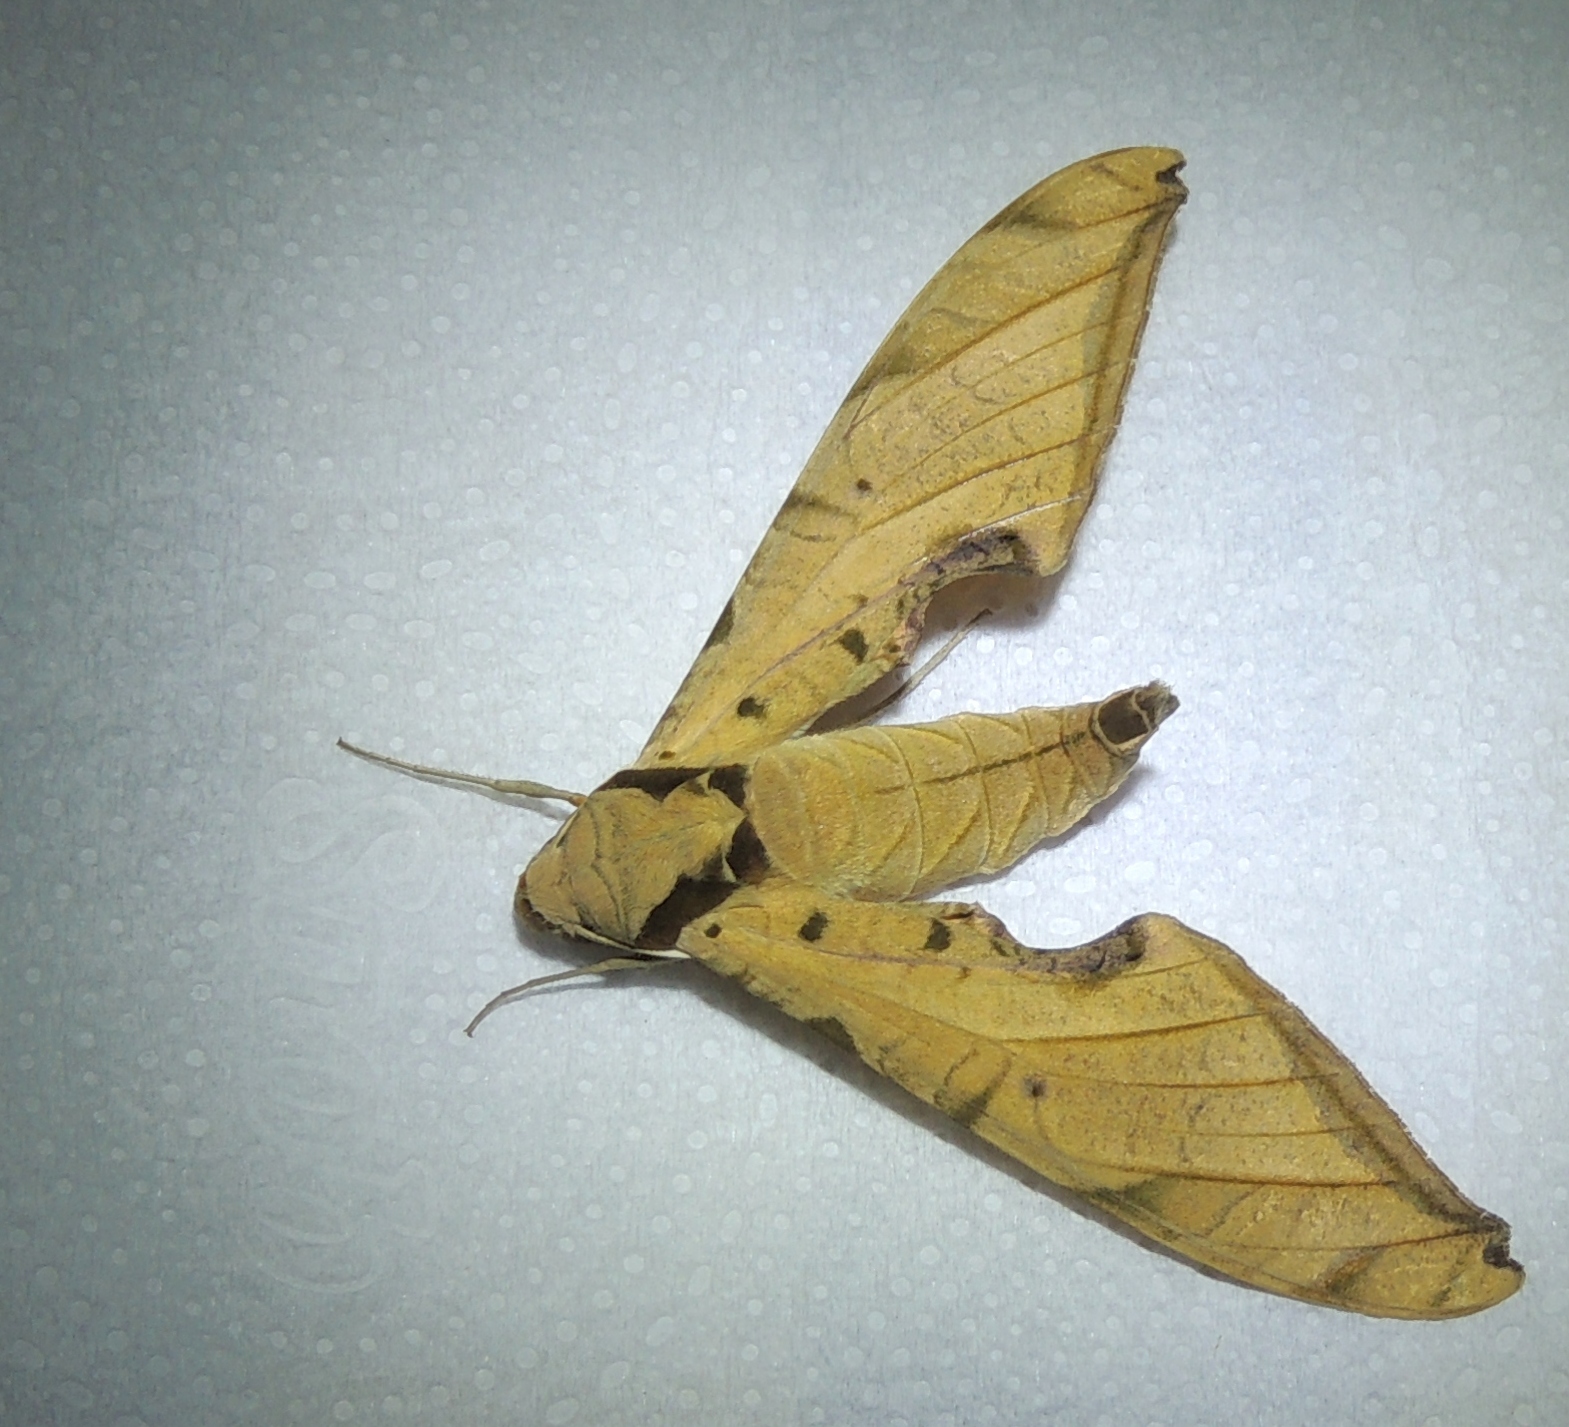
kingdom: Animalia
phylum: Arthropoda
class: Insecta
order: Lepidoptera
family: Sphingidae
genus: Protambulyx
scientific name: Protambulyx strigilis
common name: Streaked sphinx
